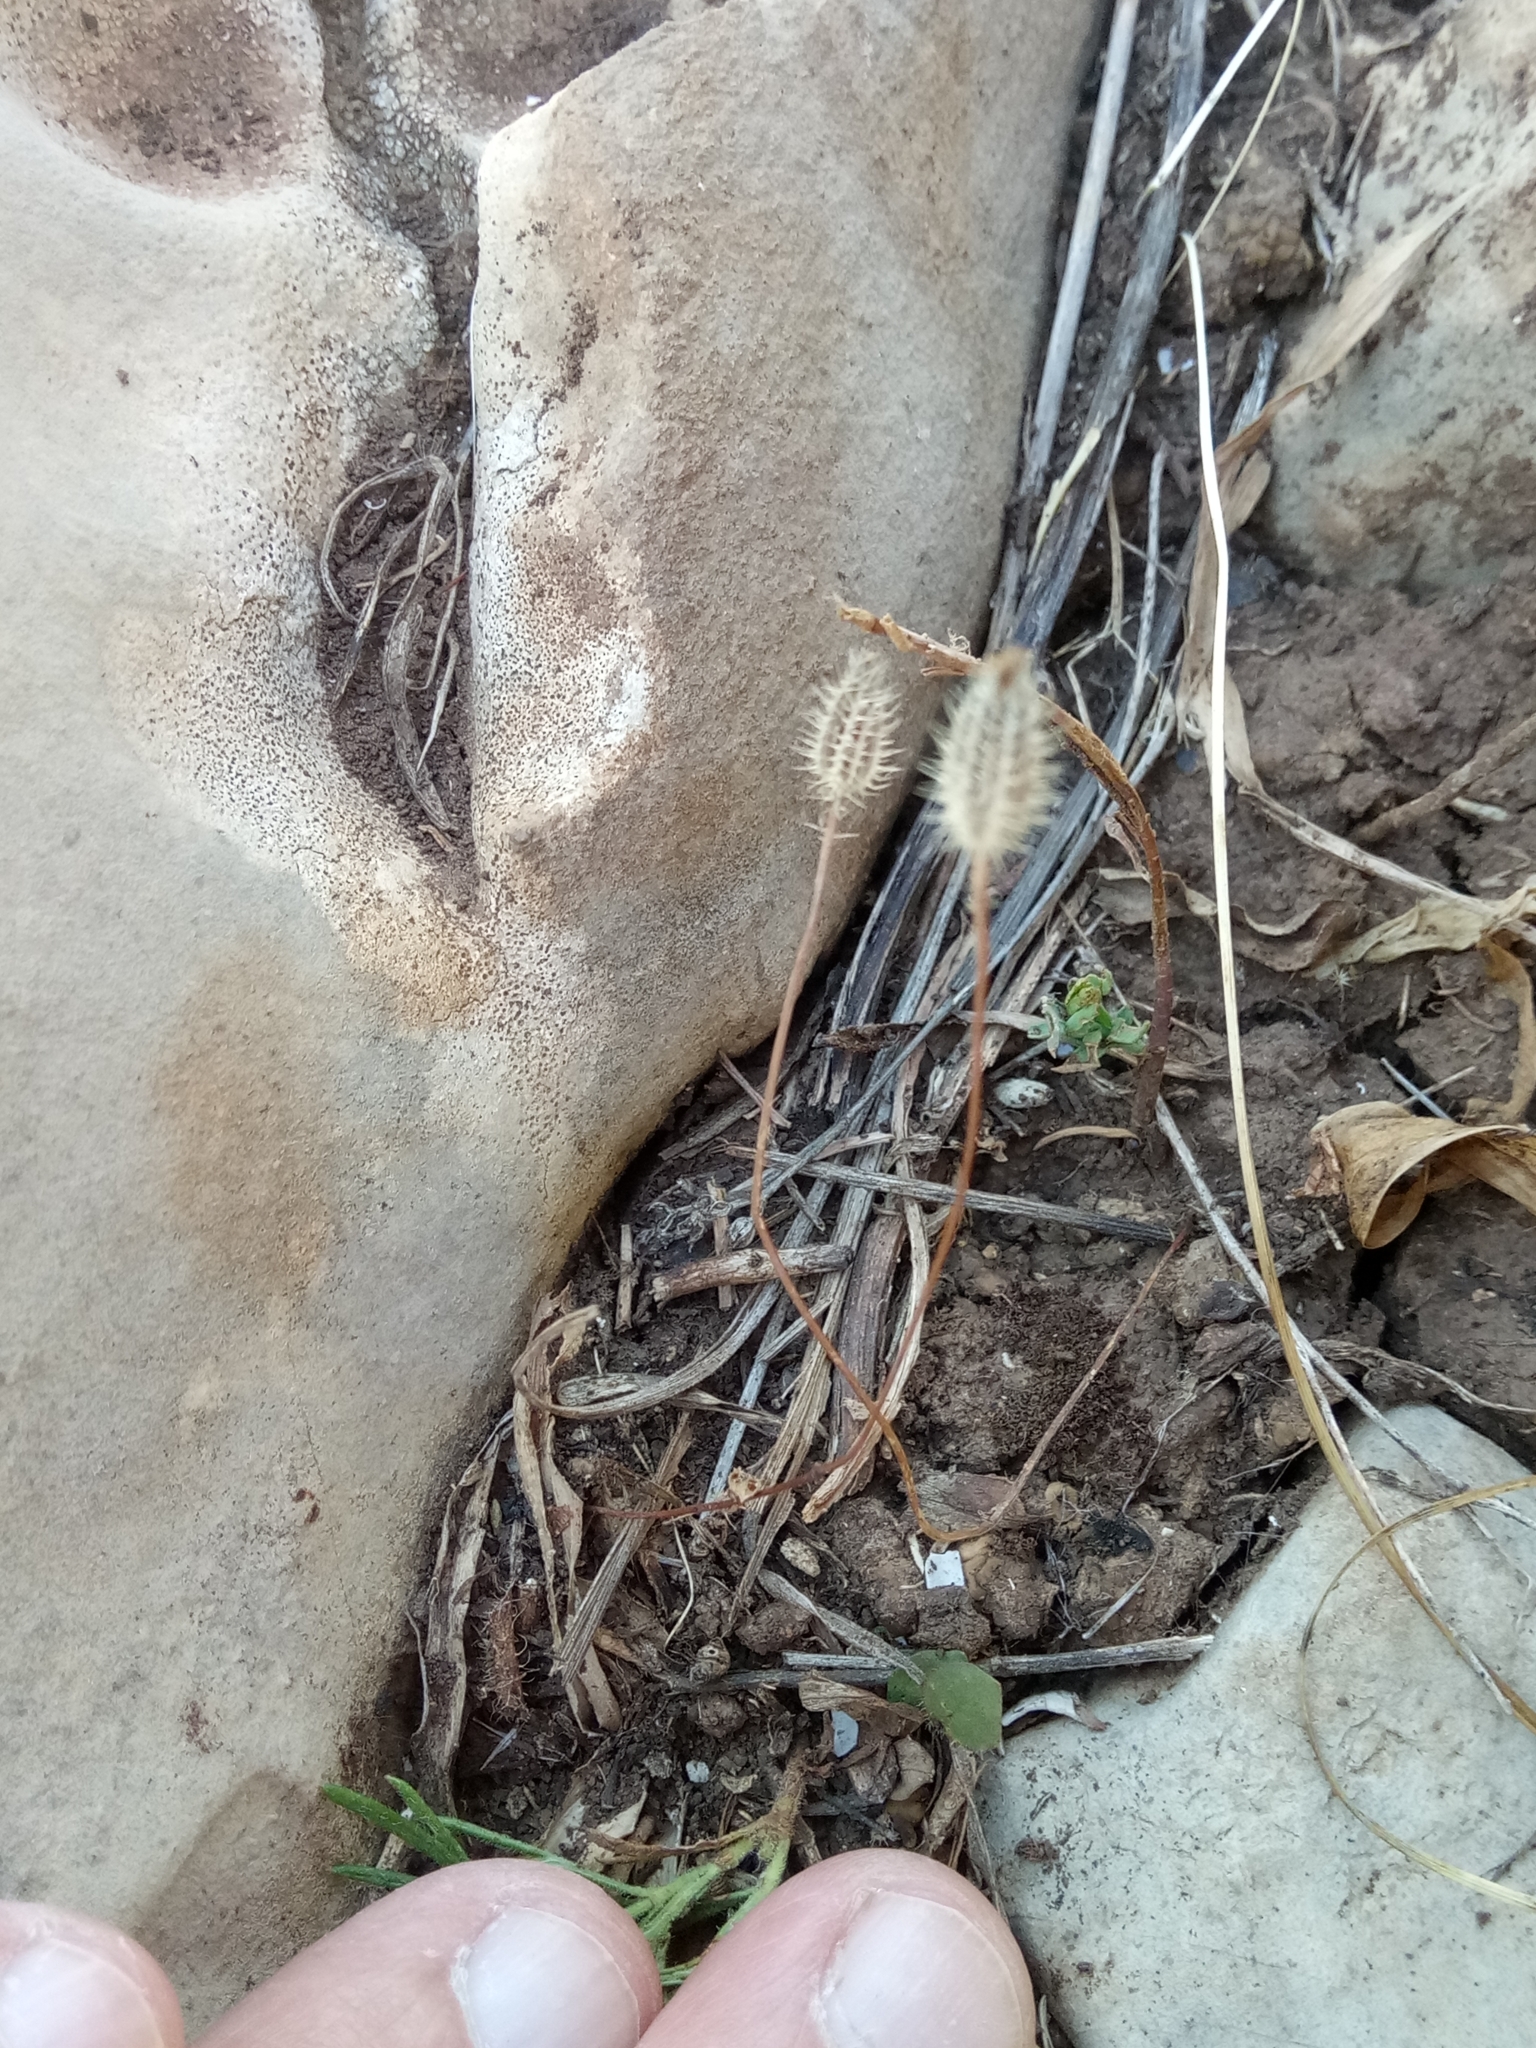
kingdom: Plantae
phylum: Tracheophyta
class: Magnoliopsida
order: Asterales
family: Asteraceae
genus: Achyrophorus
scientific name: Achyrophorus valdesii
